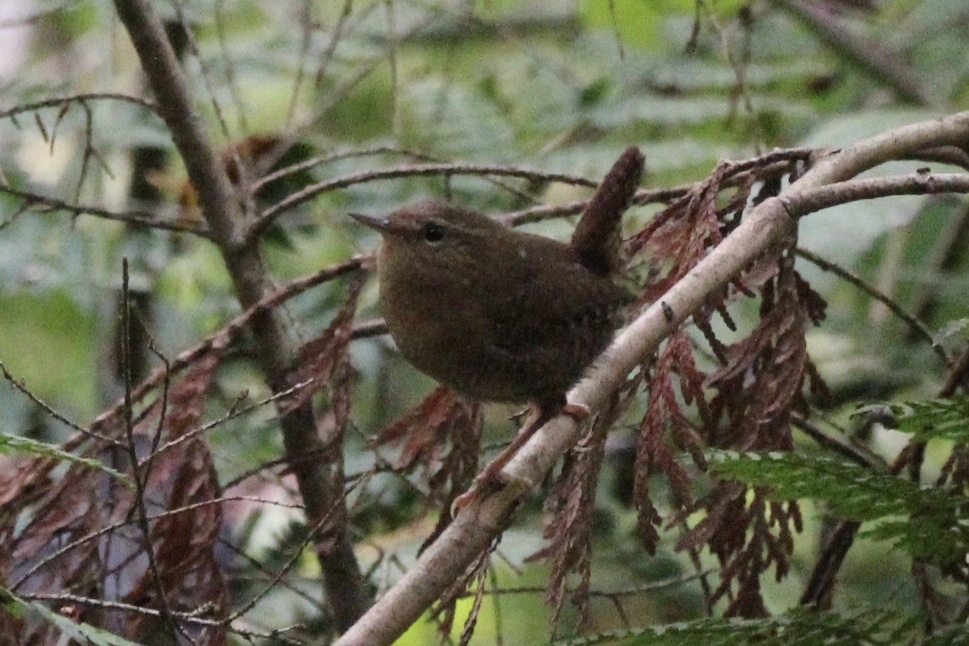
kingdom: Animalia
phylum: Chordata
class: Aves
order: Passeriformes
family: Troglodytidae
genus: Troglodytes
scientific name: Troglodytes pacificus
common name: Pacific wren
